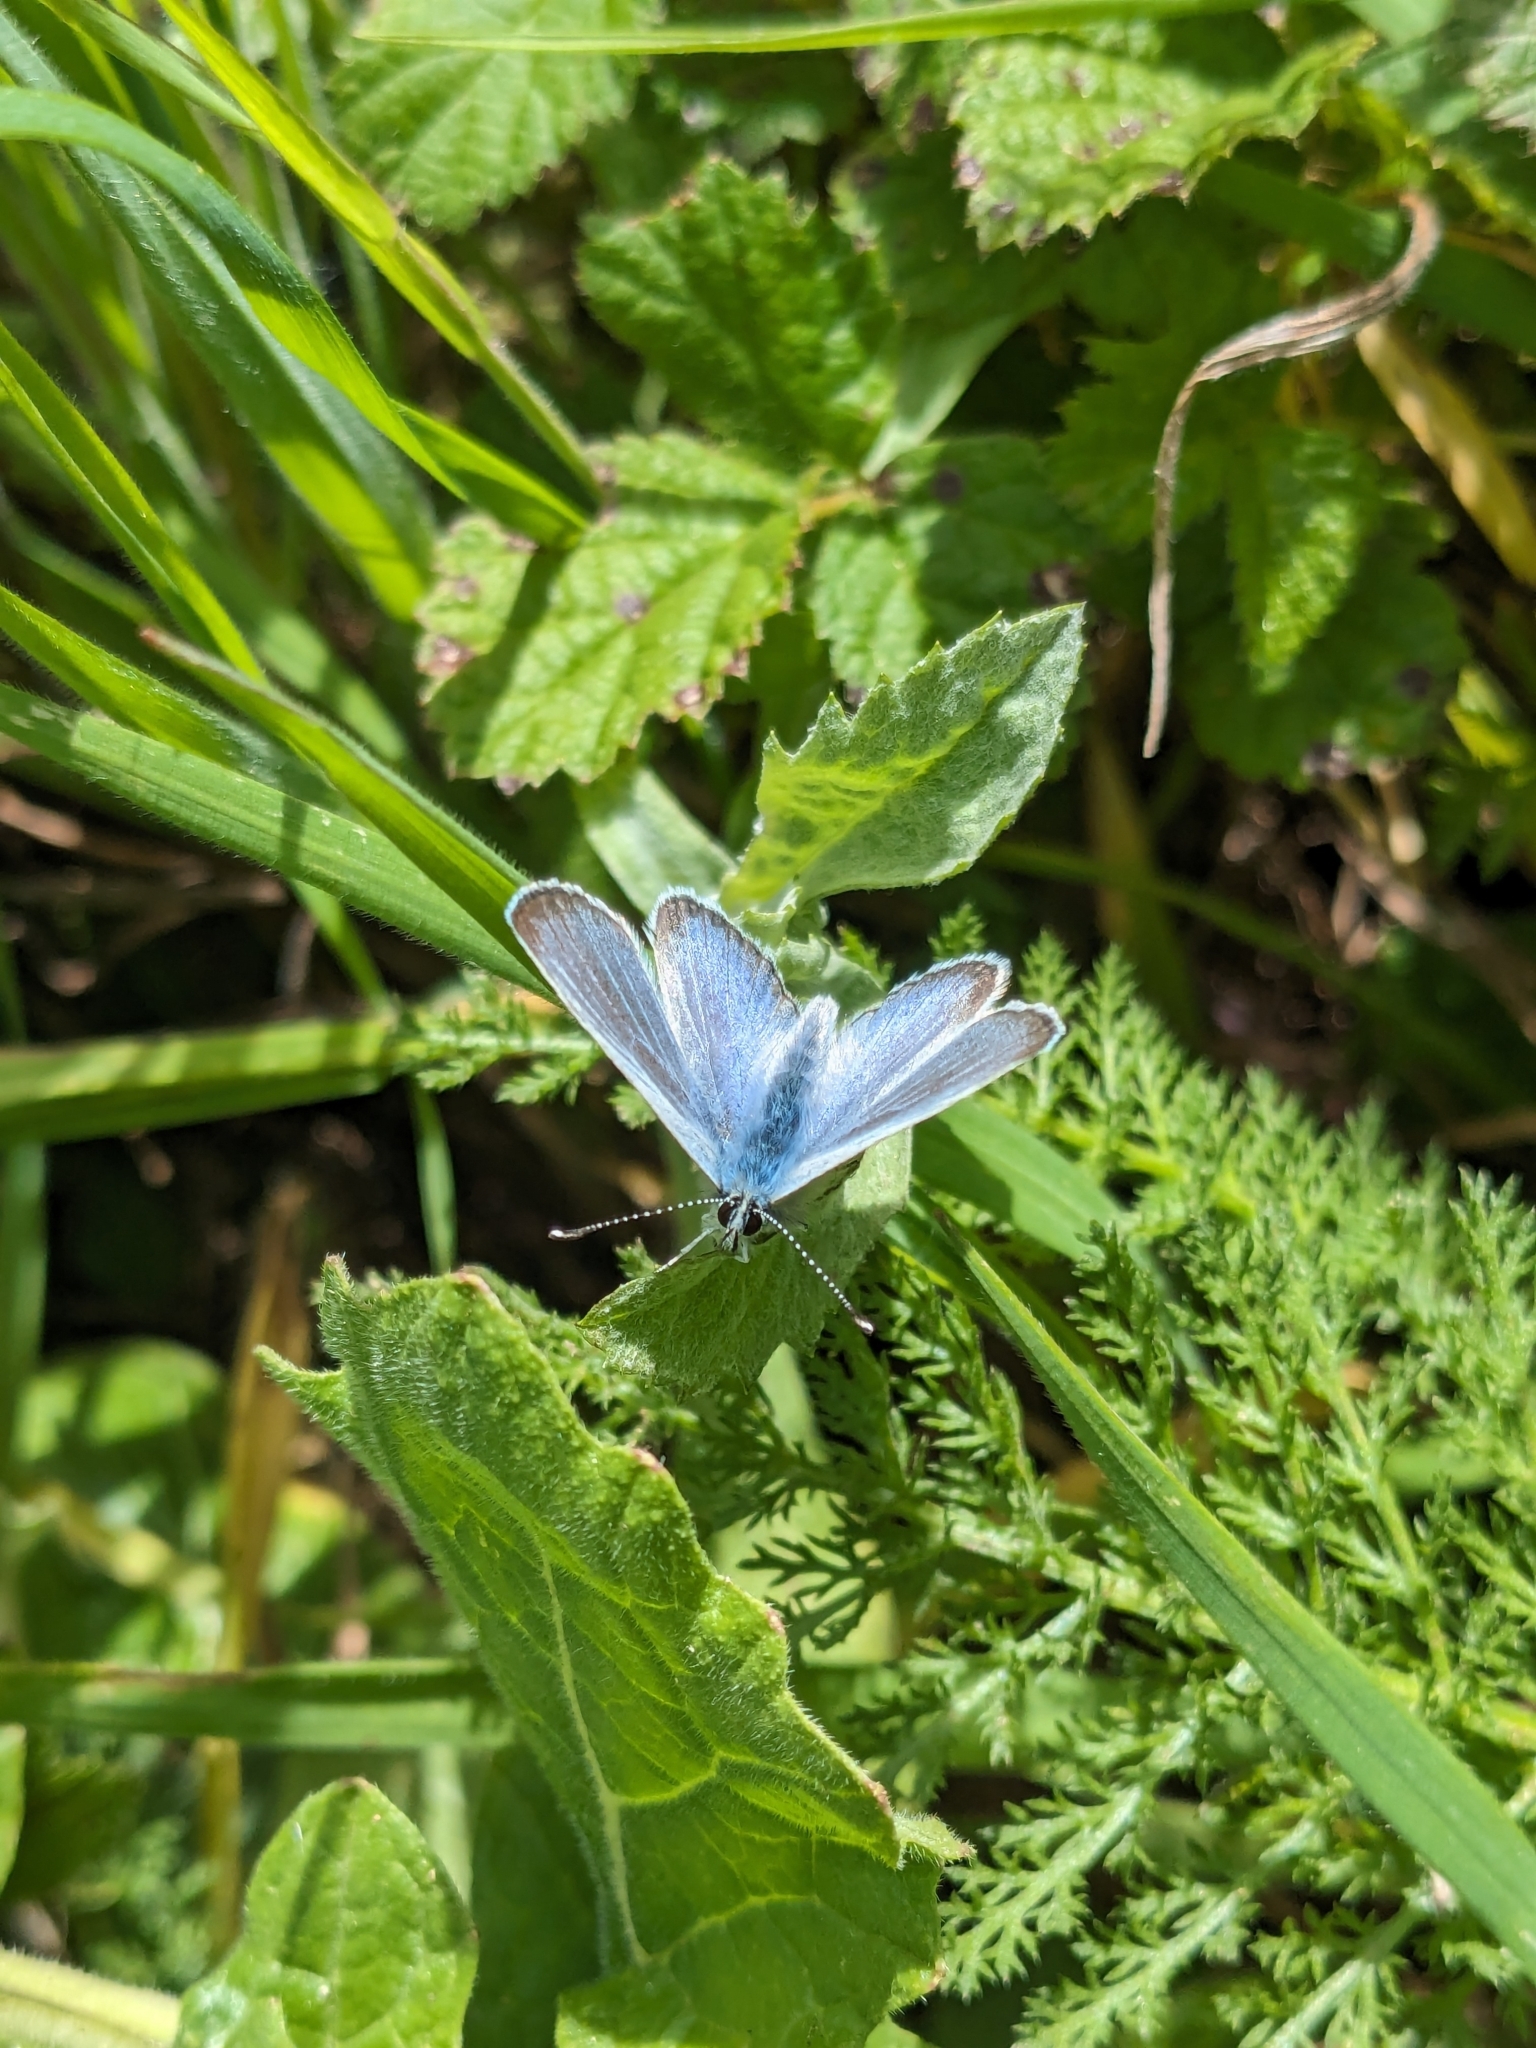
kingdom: Animalia
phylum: Arthropoda
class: Insecta
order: Lepidoptera
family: Lycaenidae
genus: Glaucopsyche
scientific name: Glaucopsyche lygdamus
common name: Silvery blue
